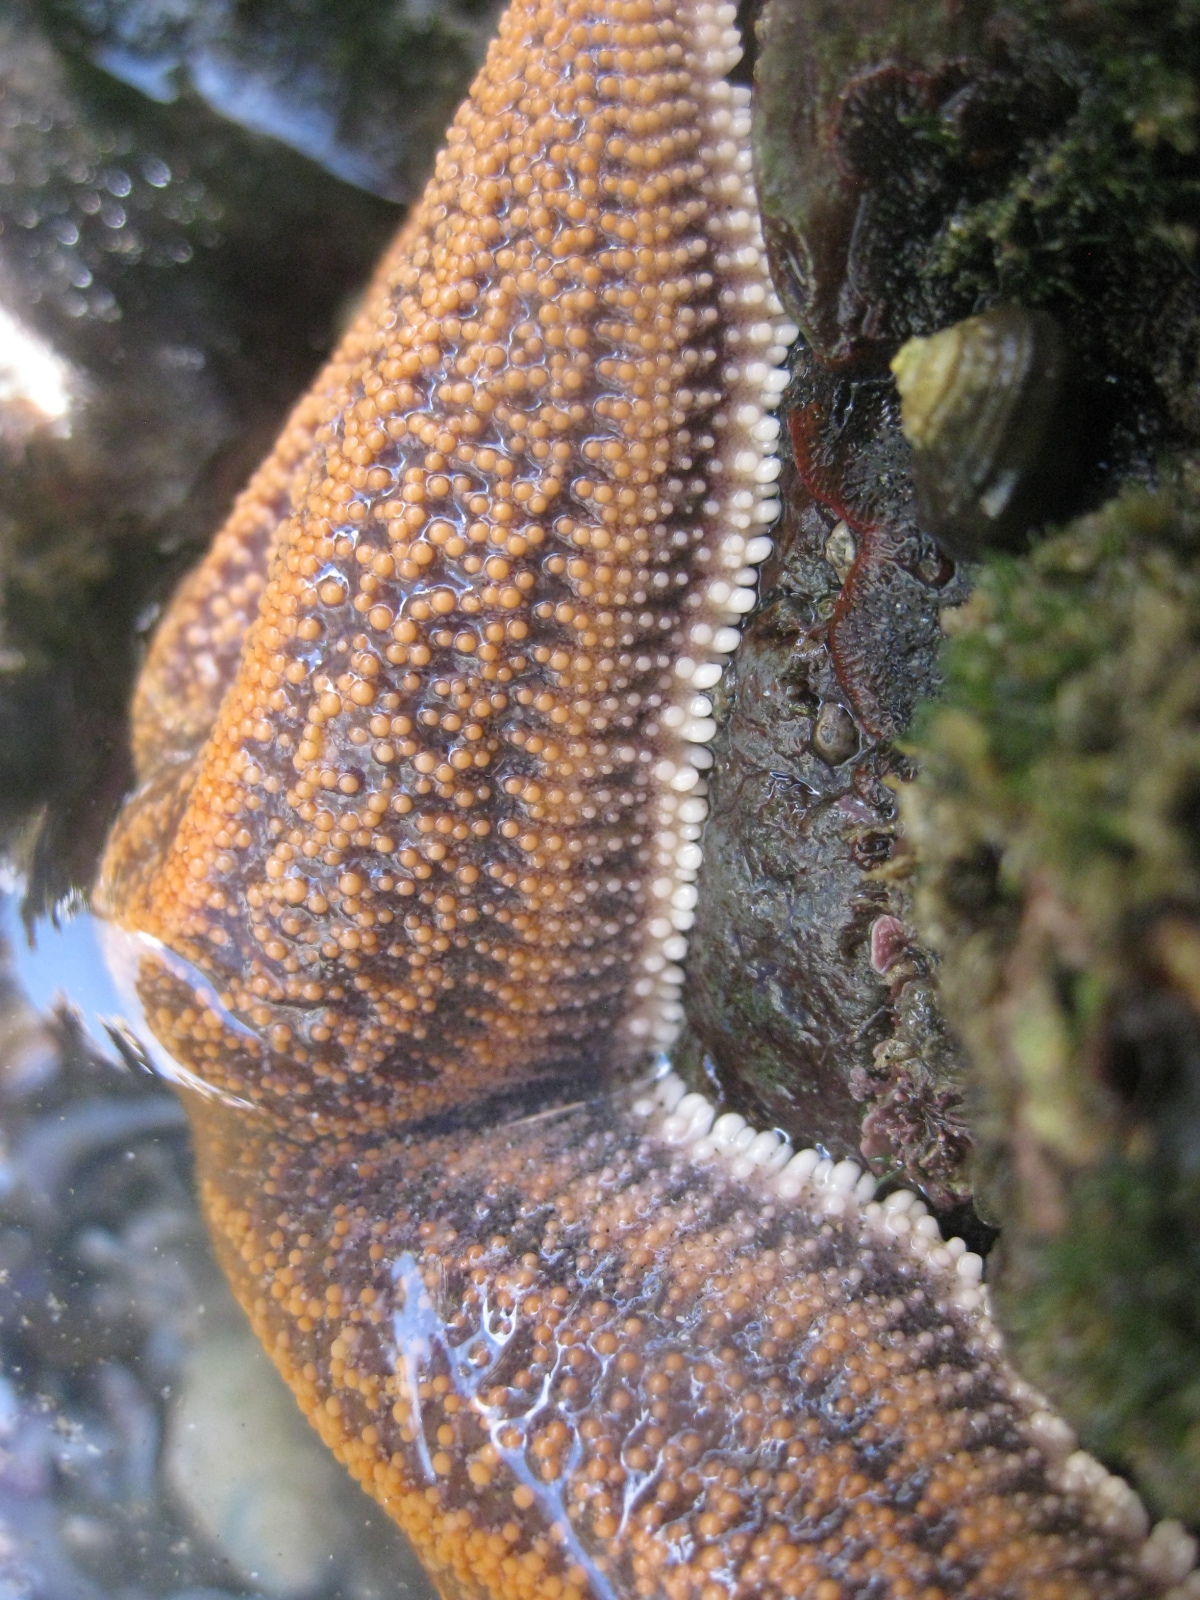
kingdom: Animalia
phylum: Bryozoa
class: Gymnolaemata
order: Cheilostomatida
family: Watersiporidae
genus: Watersipora
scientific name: Watersipora subatra
